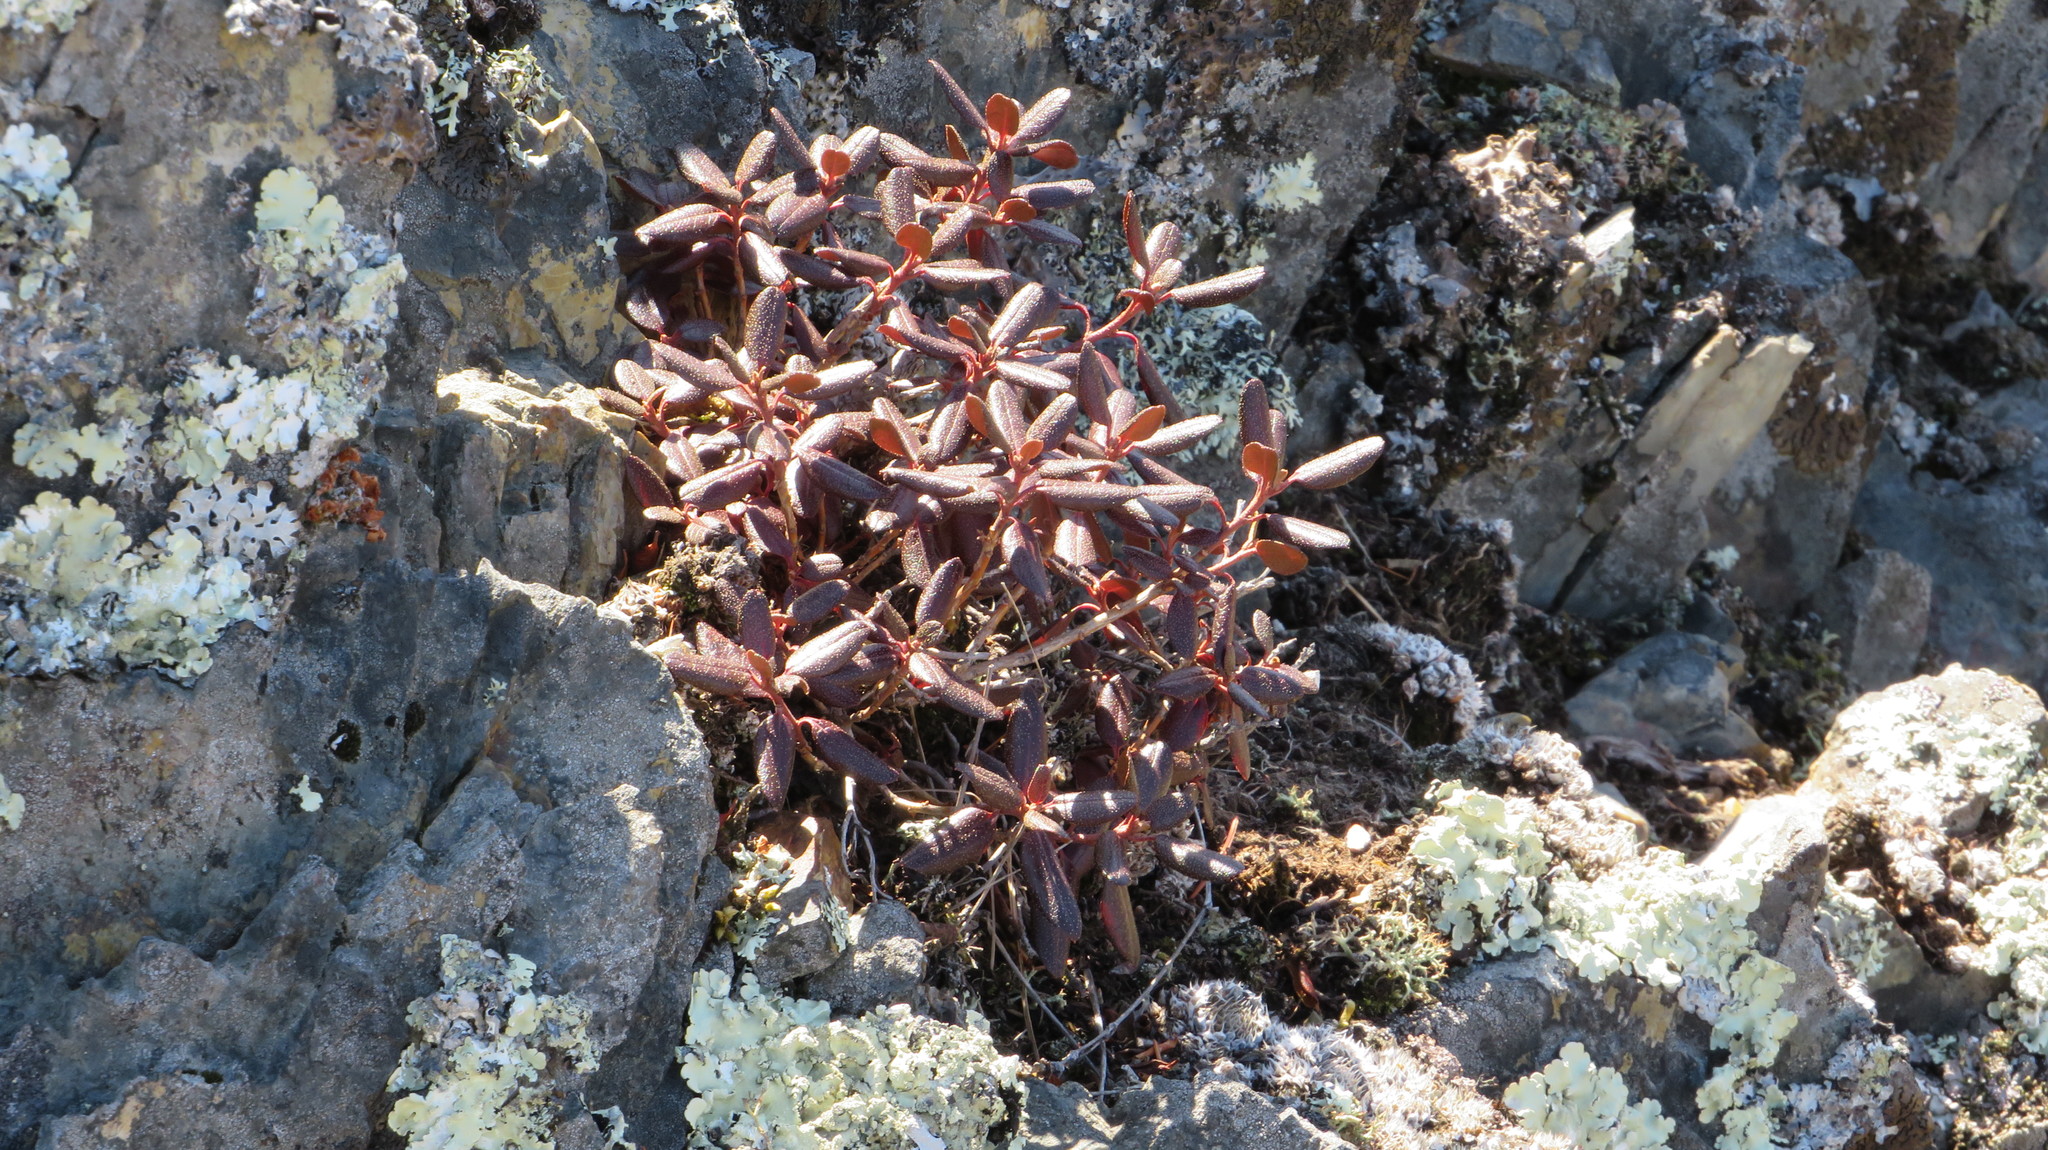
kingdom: Plantae
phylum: Tracheophyta
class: Magnoliopsida
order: Ericales
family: Ericaceae
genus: Rhododendron
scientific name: Rhododendron dauricum
